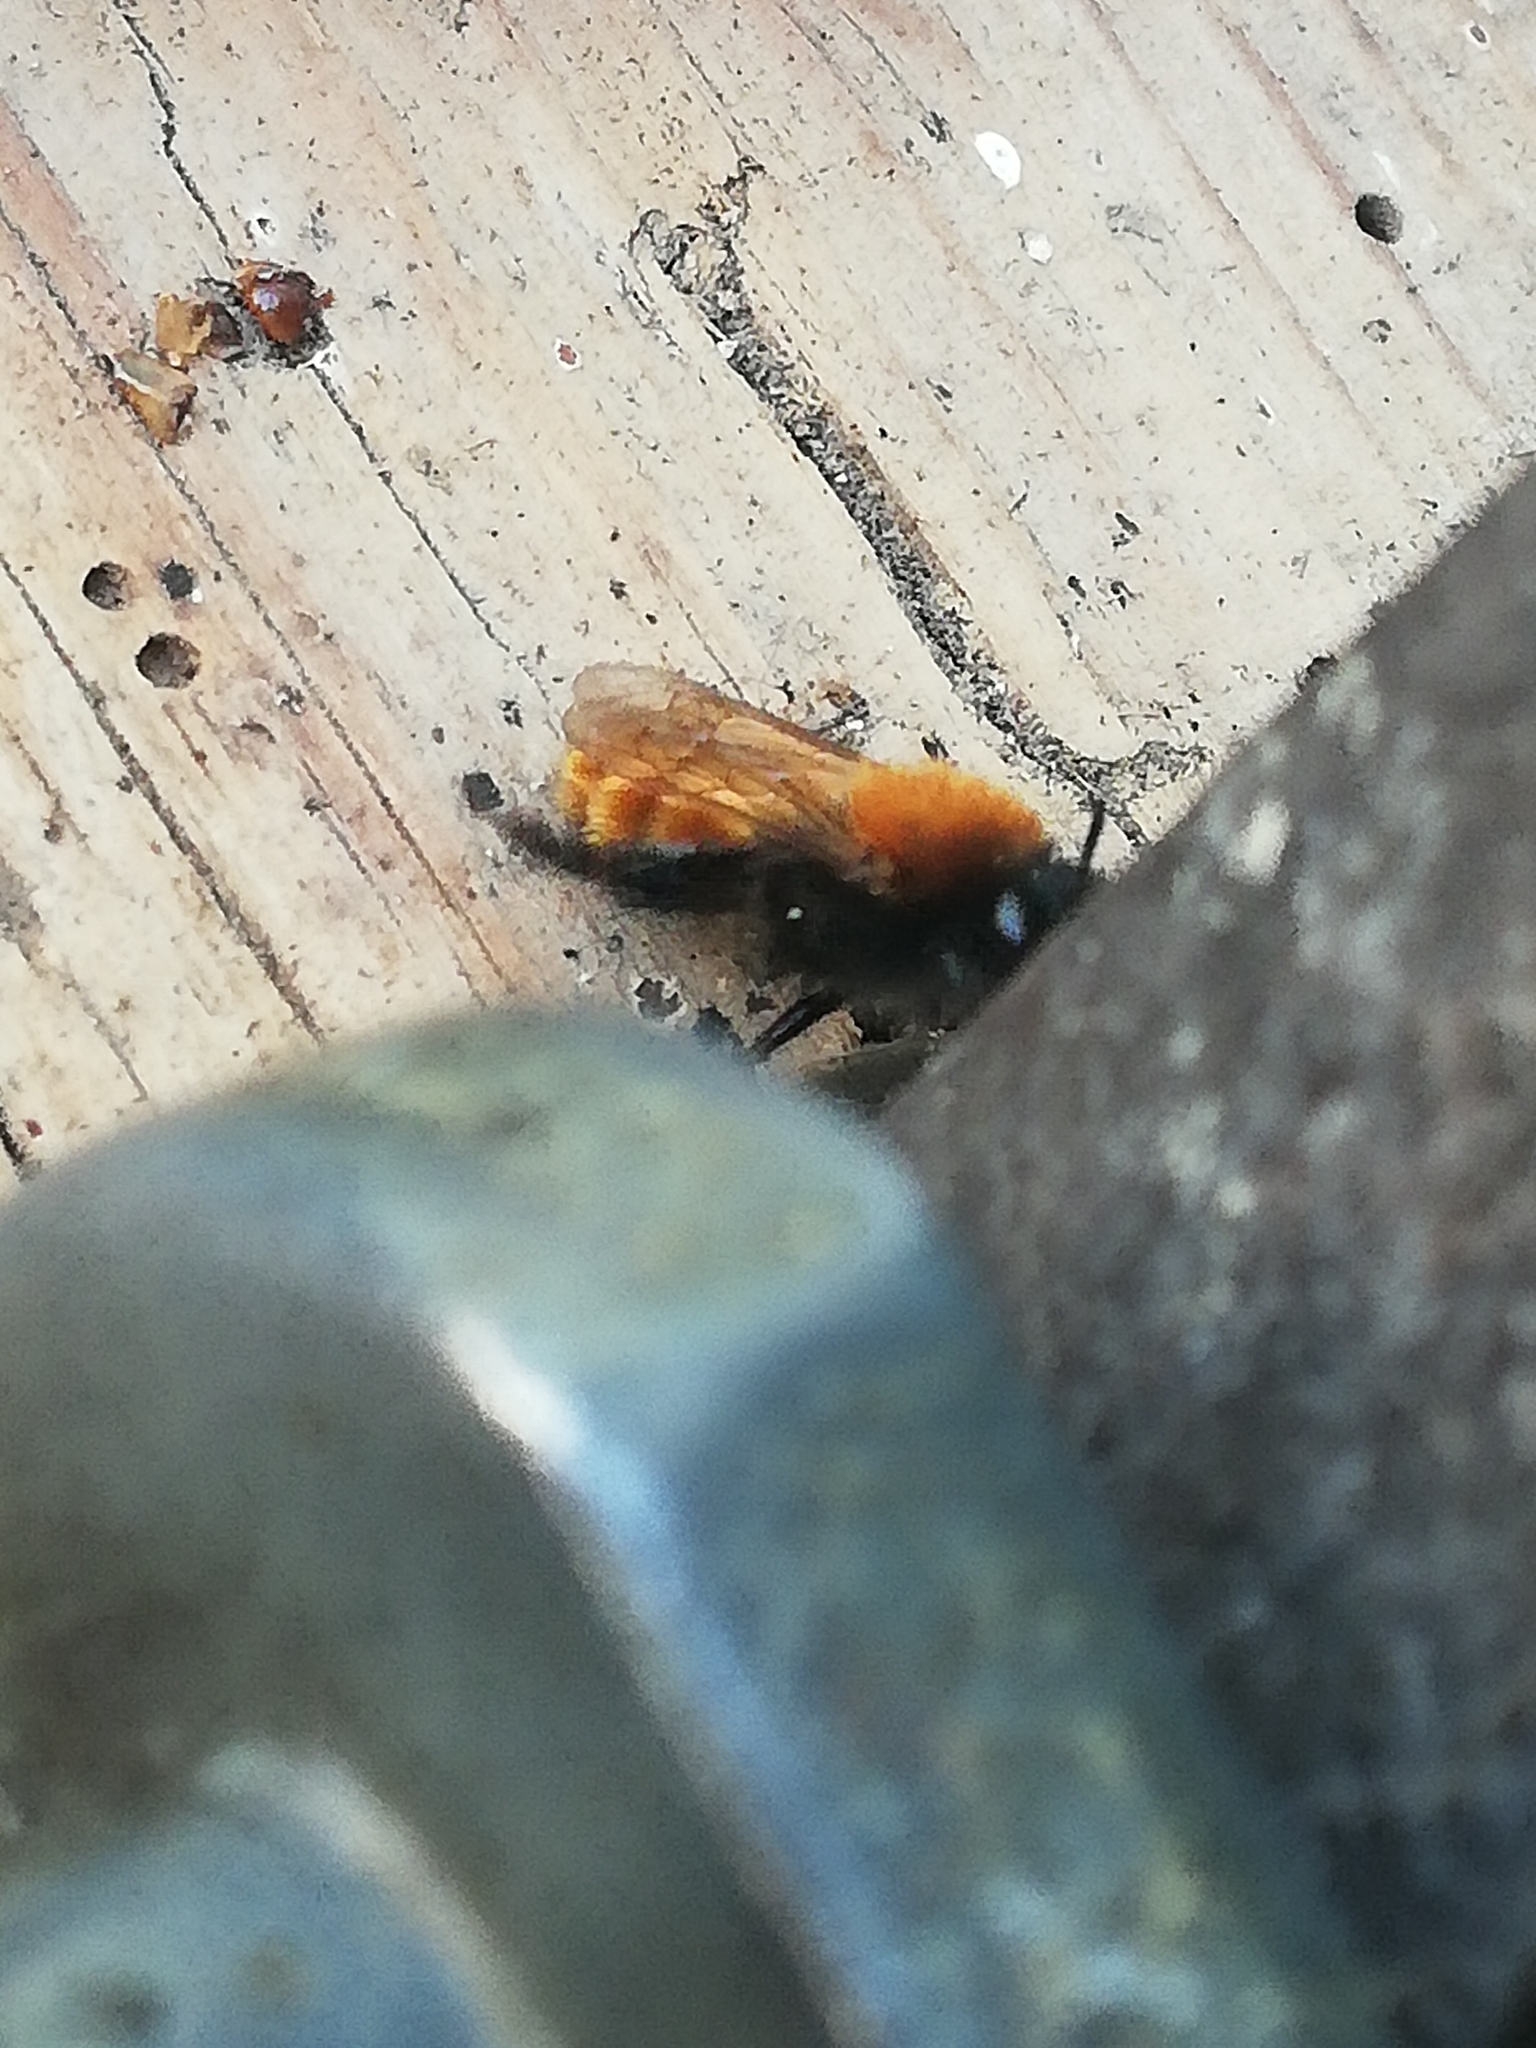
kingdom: Animalia
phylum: Arthropoda
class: Insecta
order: Hymenoptera
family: Andrenidae
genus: Andrena
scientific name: Andrena fulva
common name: Tawny mining bee
